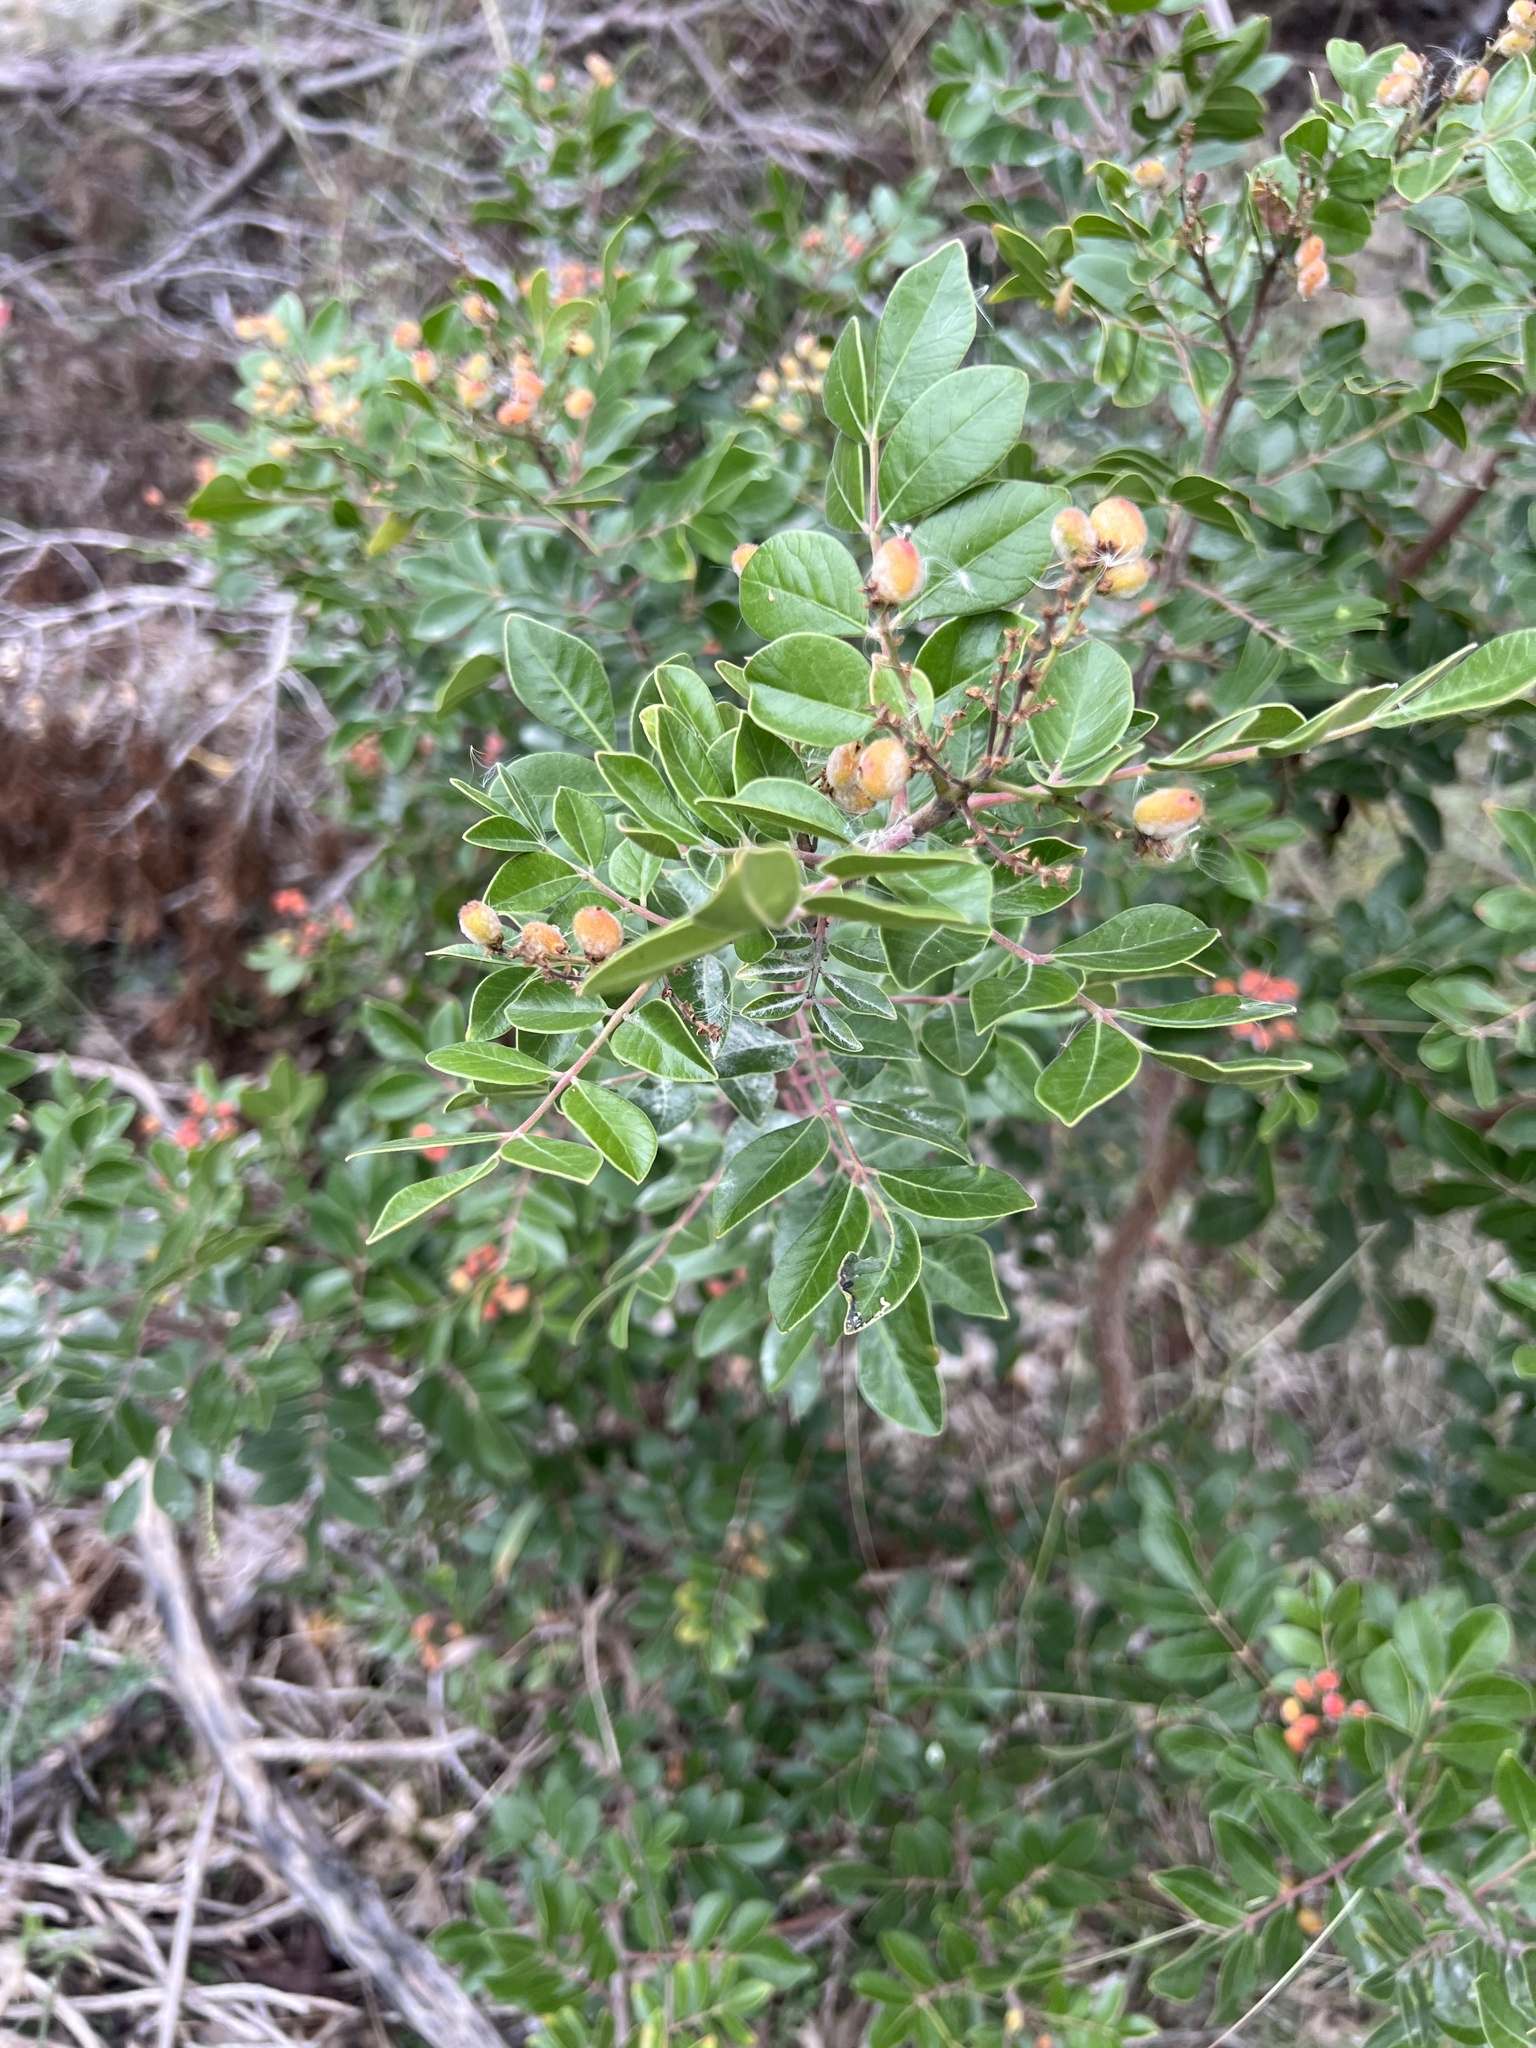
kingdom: Plantae
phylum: Tracheophyta
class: Magnoliopsida
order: Sapindales
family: Anacardiaceae
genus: Rhus
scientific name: Rhus virens
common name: Evergreen sumac
